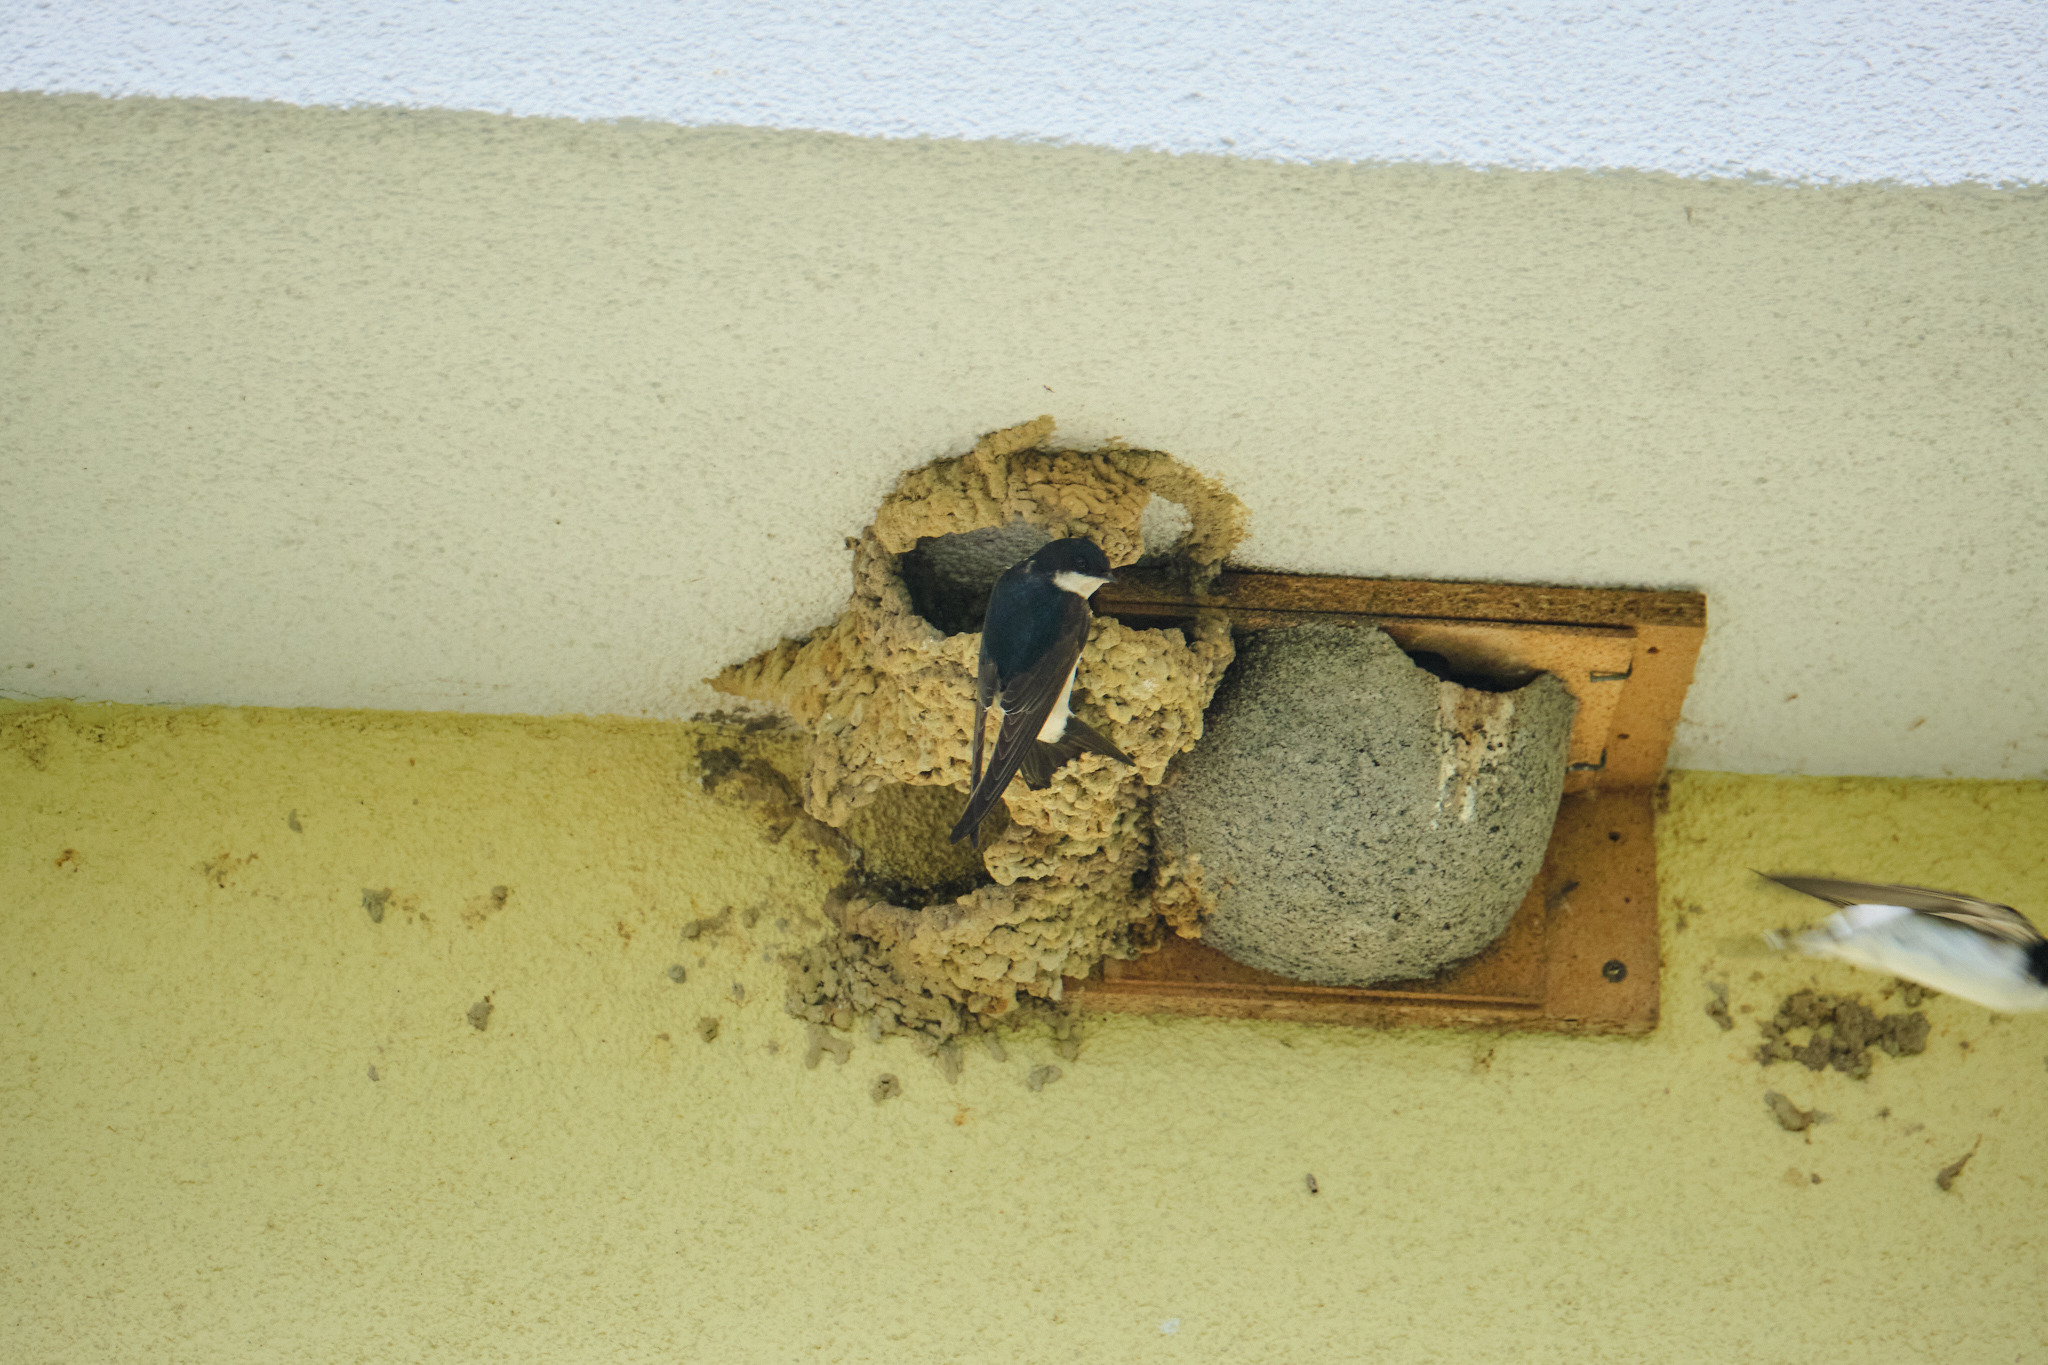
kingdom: Animalia
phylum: Chordata
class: Aves
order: Passeriformes
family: Hirundinidae
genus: Delichon
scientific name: Delichon urbicum
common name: Common house martin
